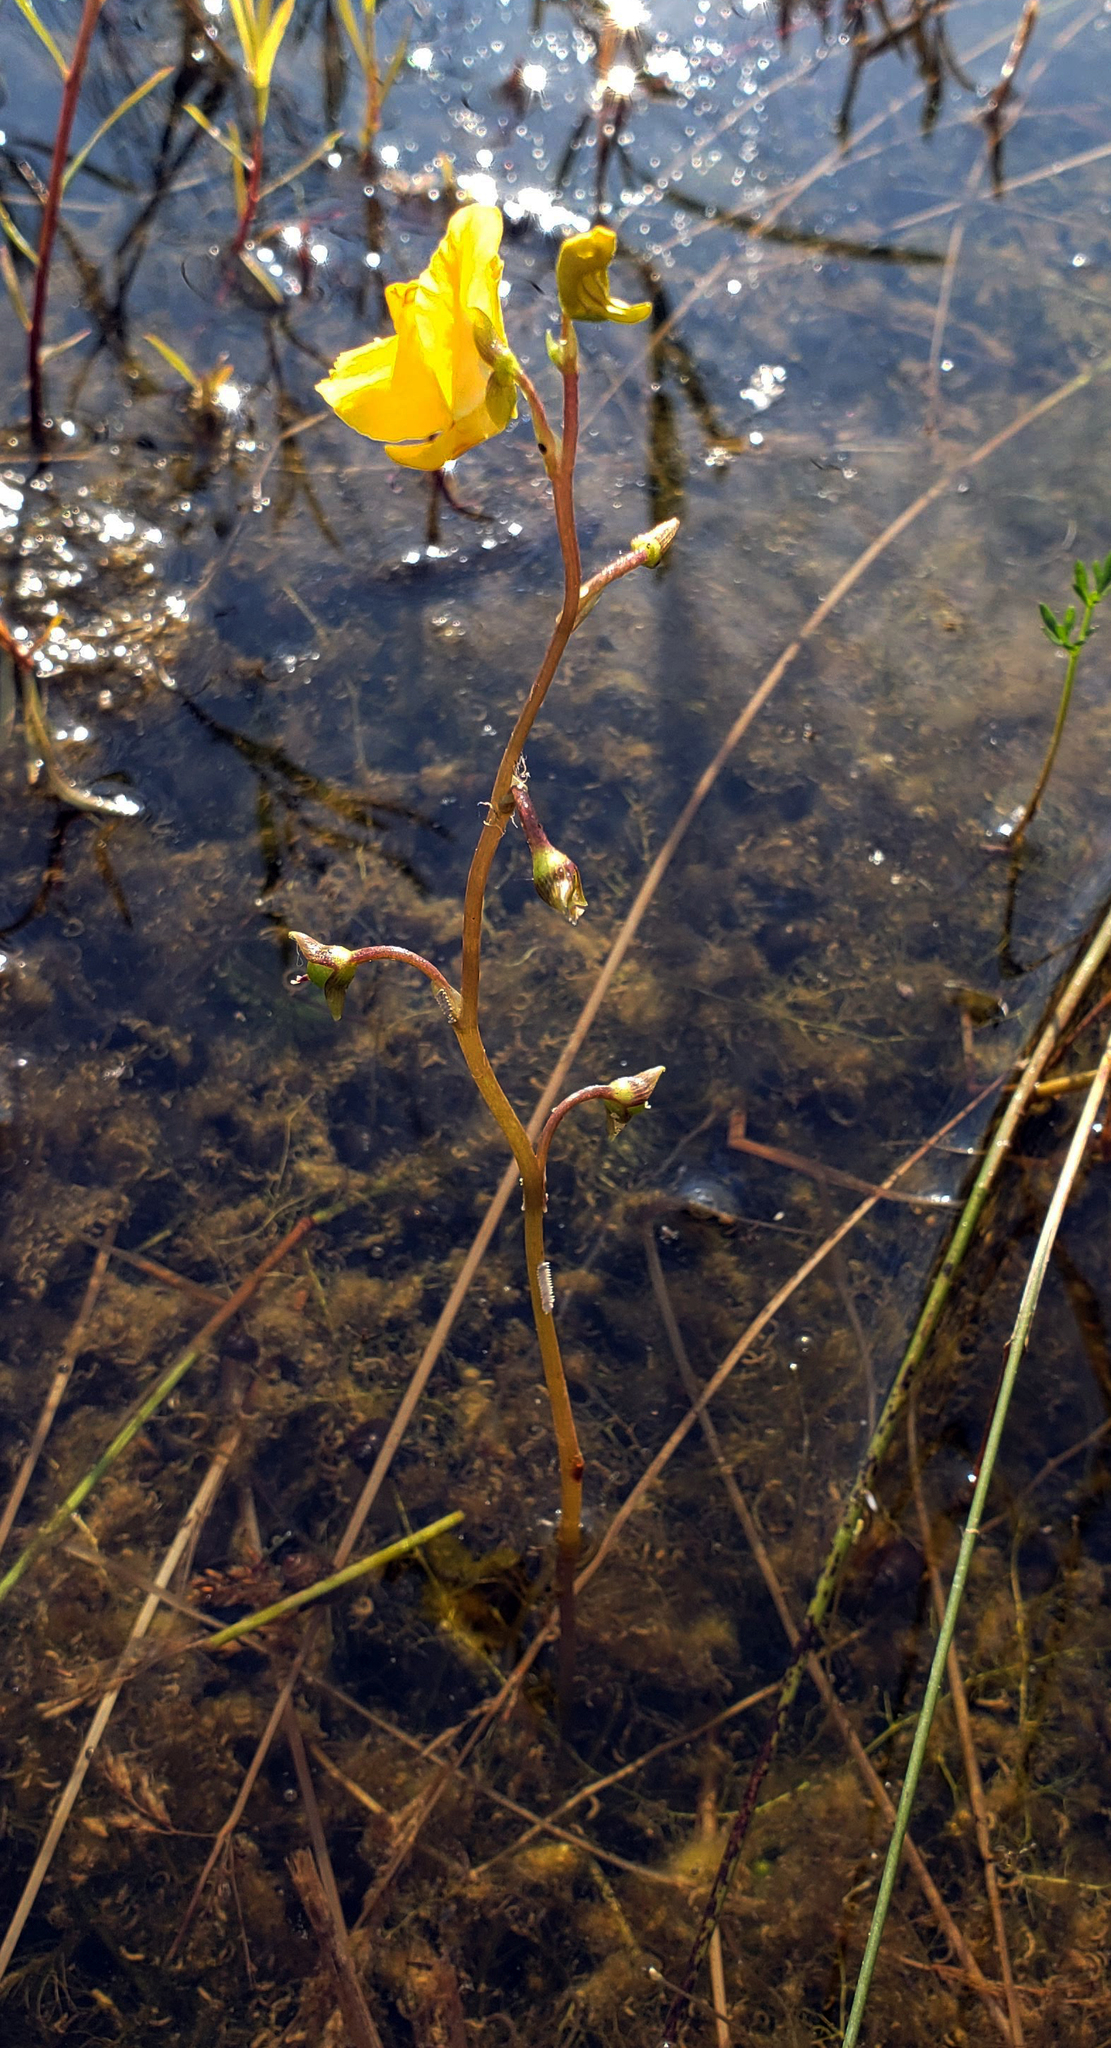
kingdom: Plantae
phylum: Tracheophyta
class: Magnoliopsida
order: Lamiales
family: Lentibulariaceae
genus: Utricularia
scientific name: Utricularia macrorhiza
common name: Common bladderwort
